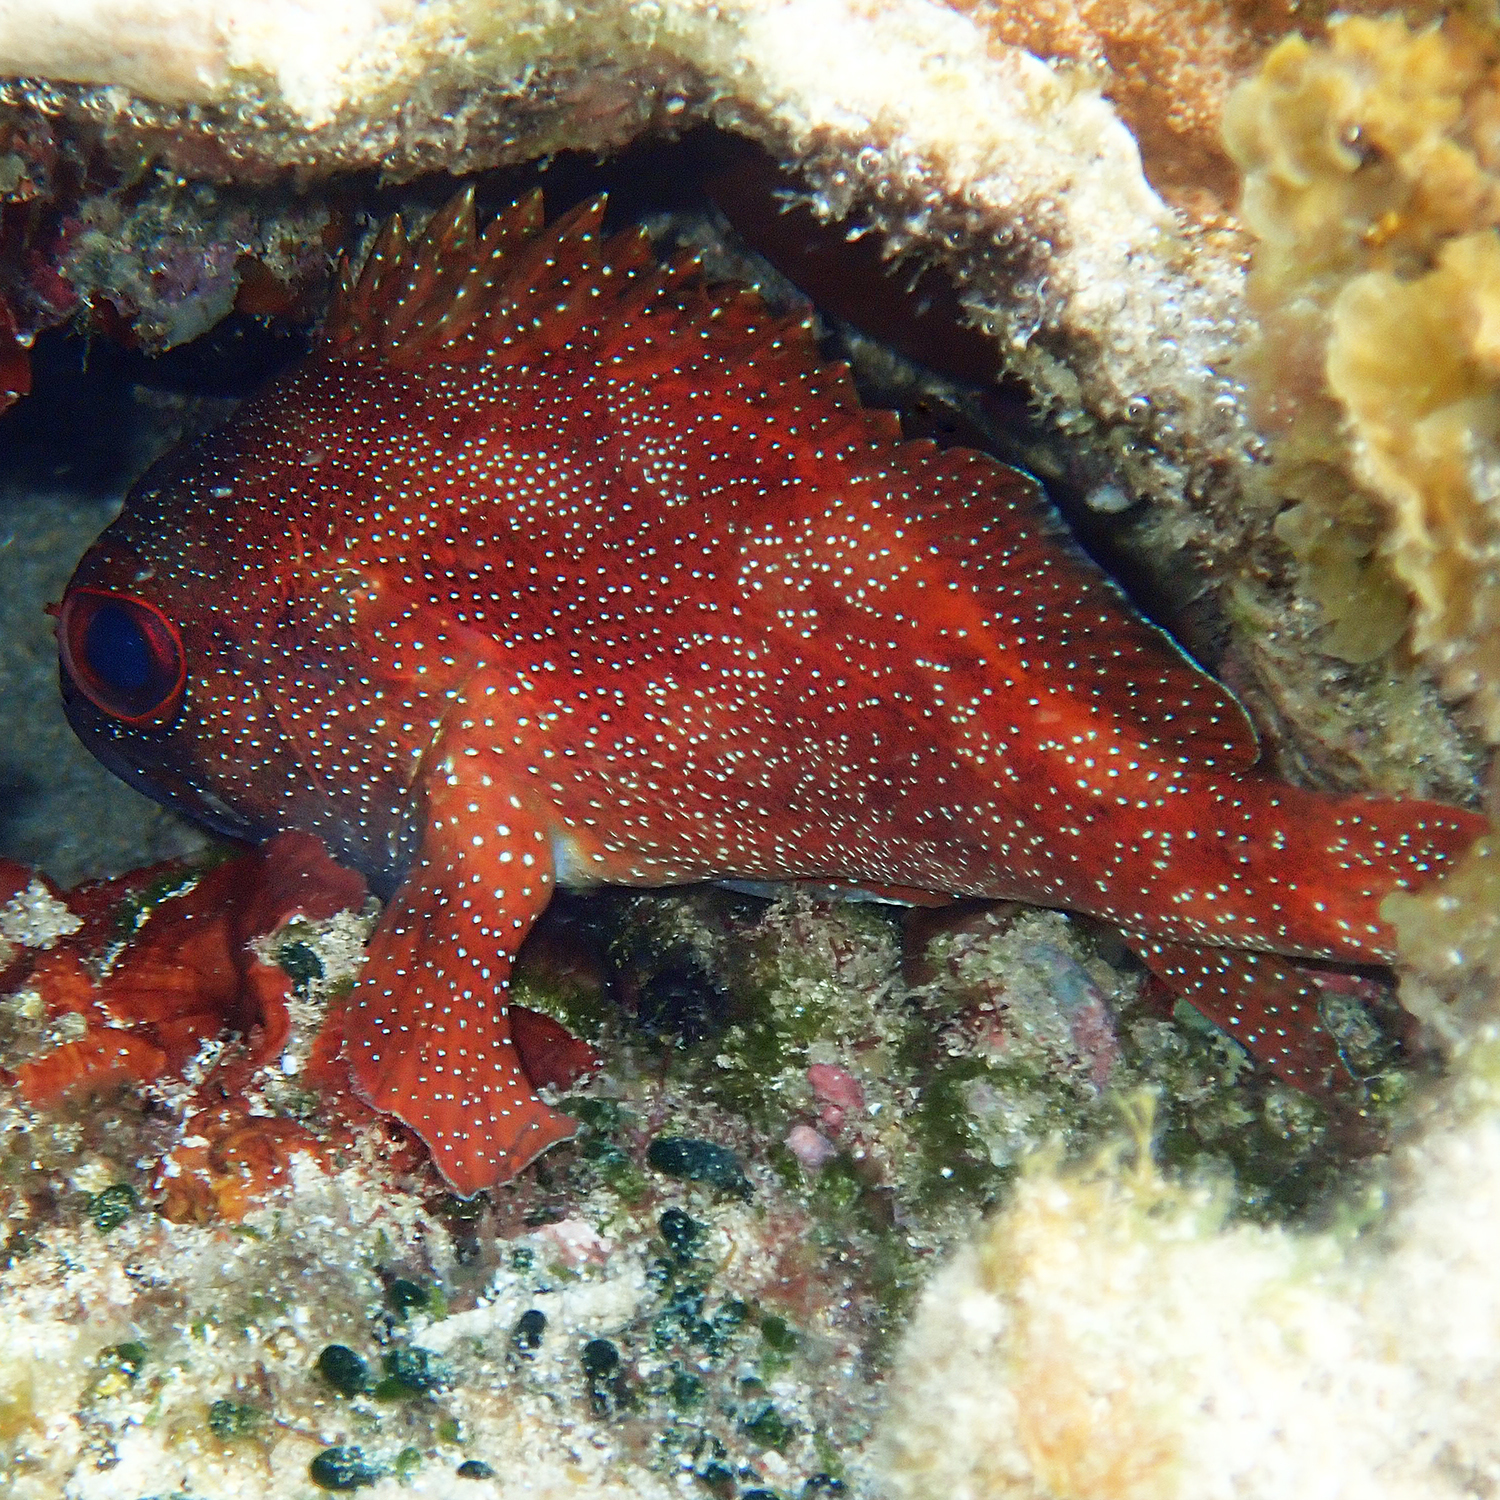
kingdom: Animalia
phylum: Chordata
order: Perciformes
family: Serranidae
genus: Trachypoma
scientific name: Trachypoma macracanthus
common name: Toadstool grouper
